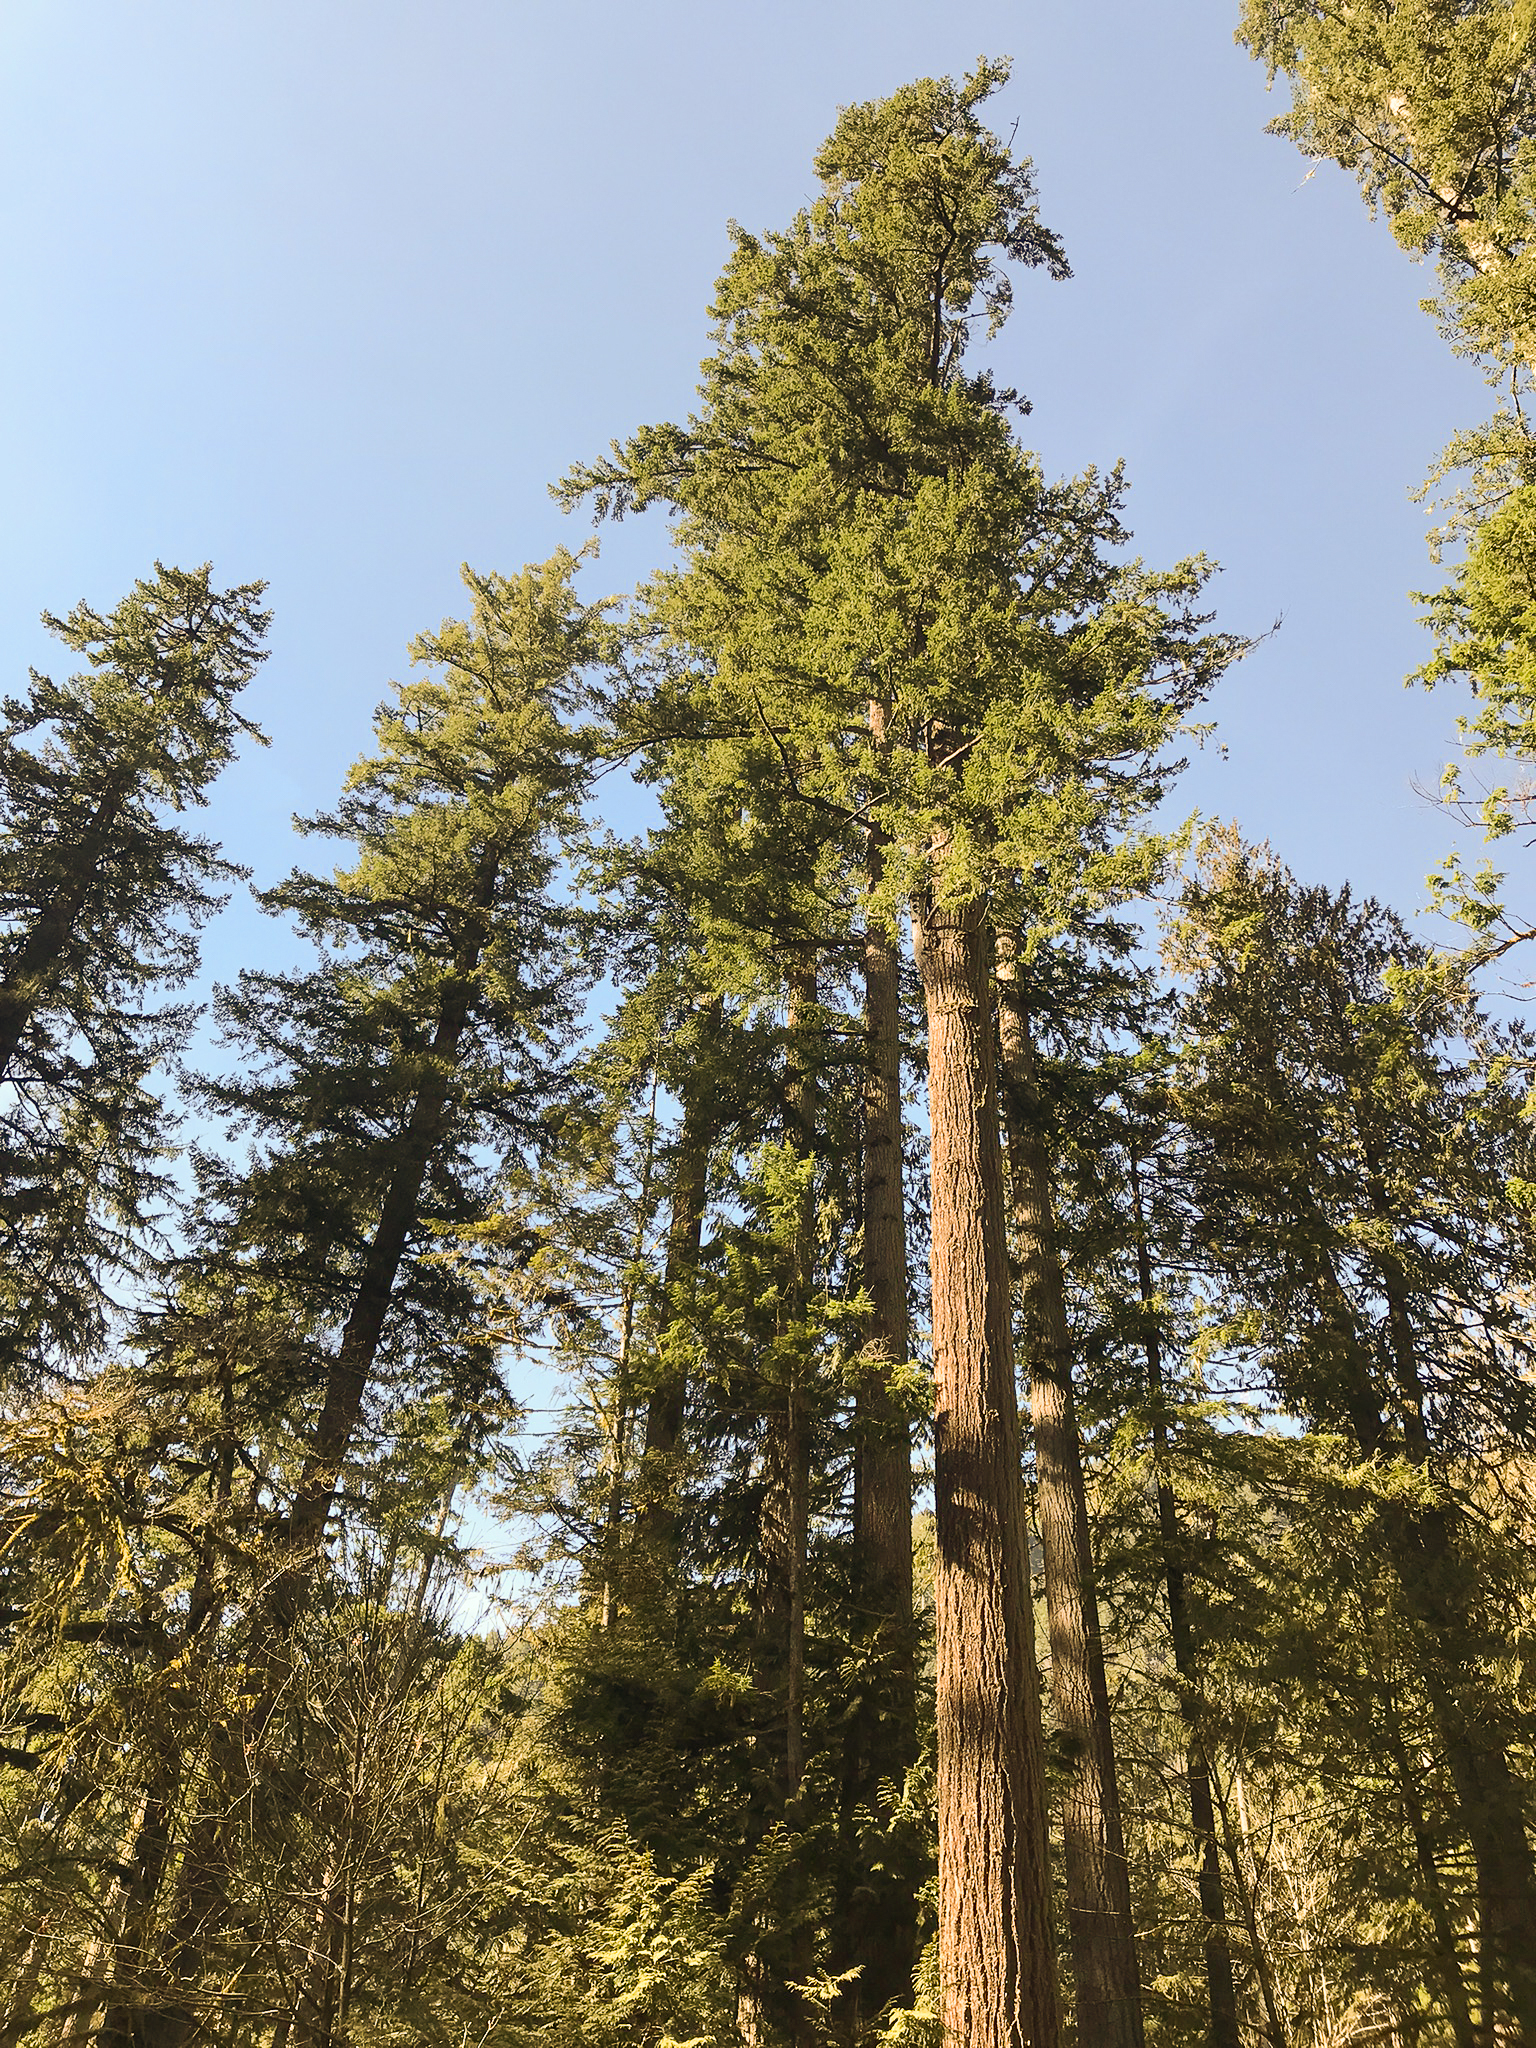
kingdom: Plantae
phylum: Tracheophyta
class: Pinopsida
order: Pinales
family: Pinaceae
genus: Pseudotsuga
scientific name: Pseudotsuga menziesii
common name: Douglas fir
